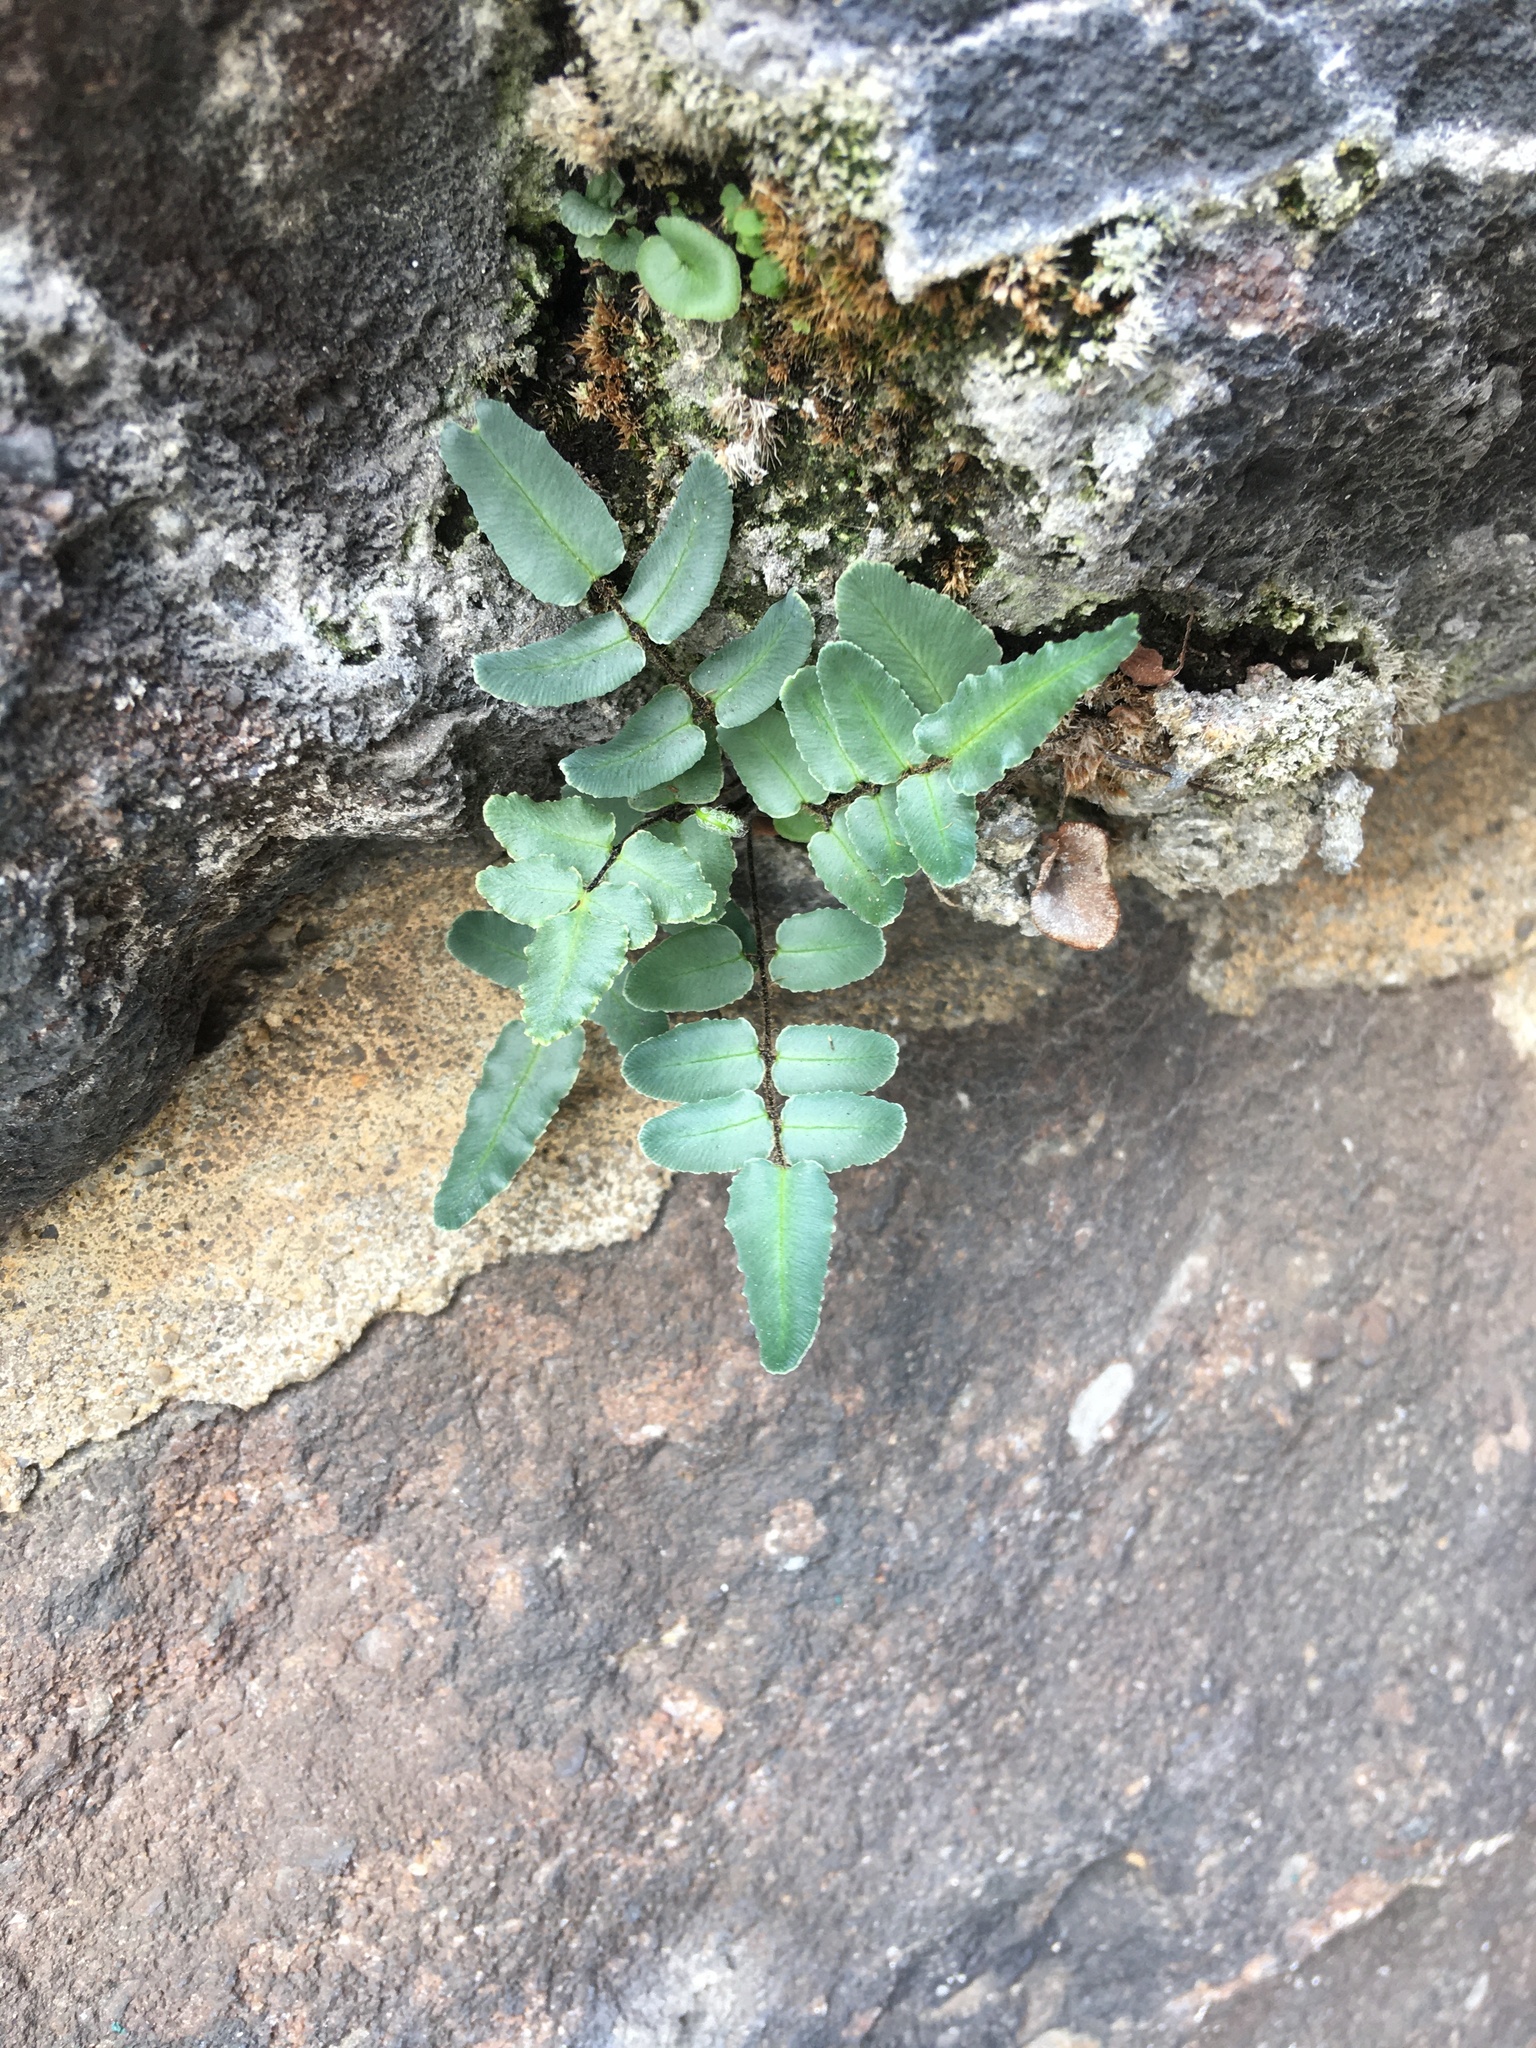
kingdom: Plantae
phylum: Tracheophyta
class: Polypodiopsida
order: Polypodiales
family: Pteridaceae
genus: Pellaea
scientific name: Pellaea atropurpurea
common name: Hairy cliffbrake
